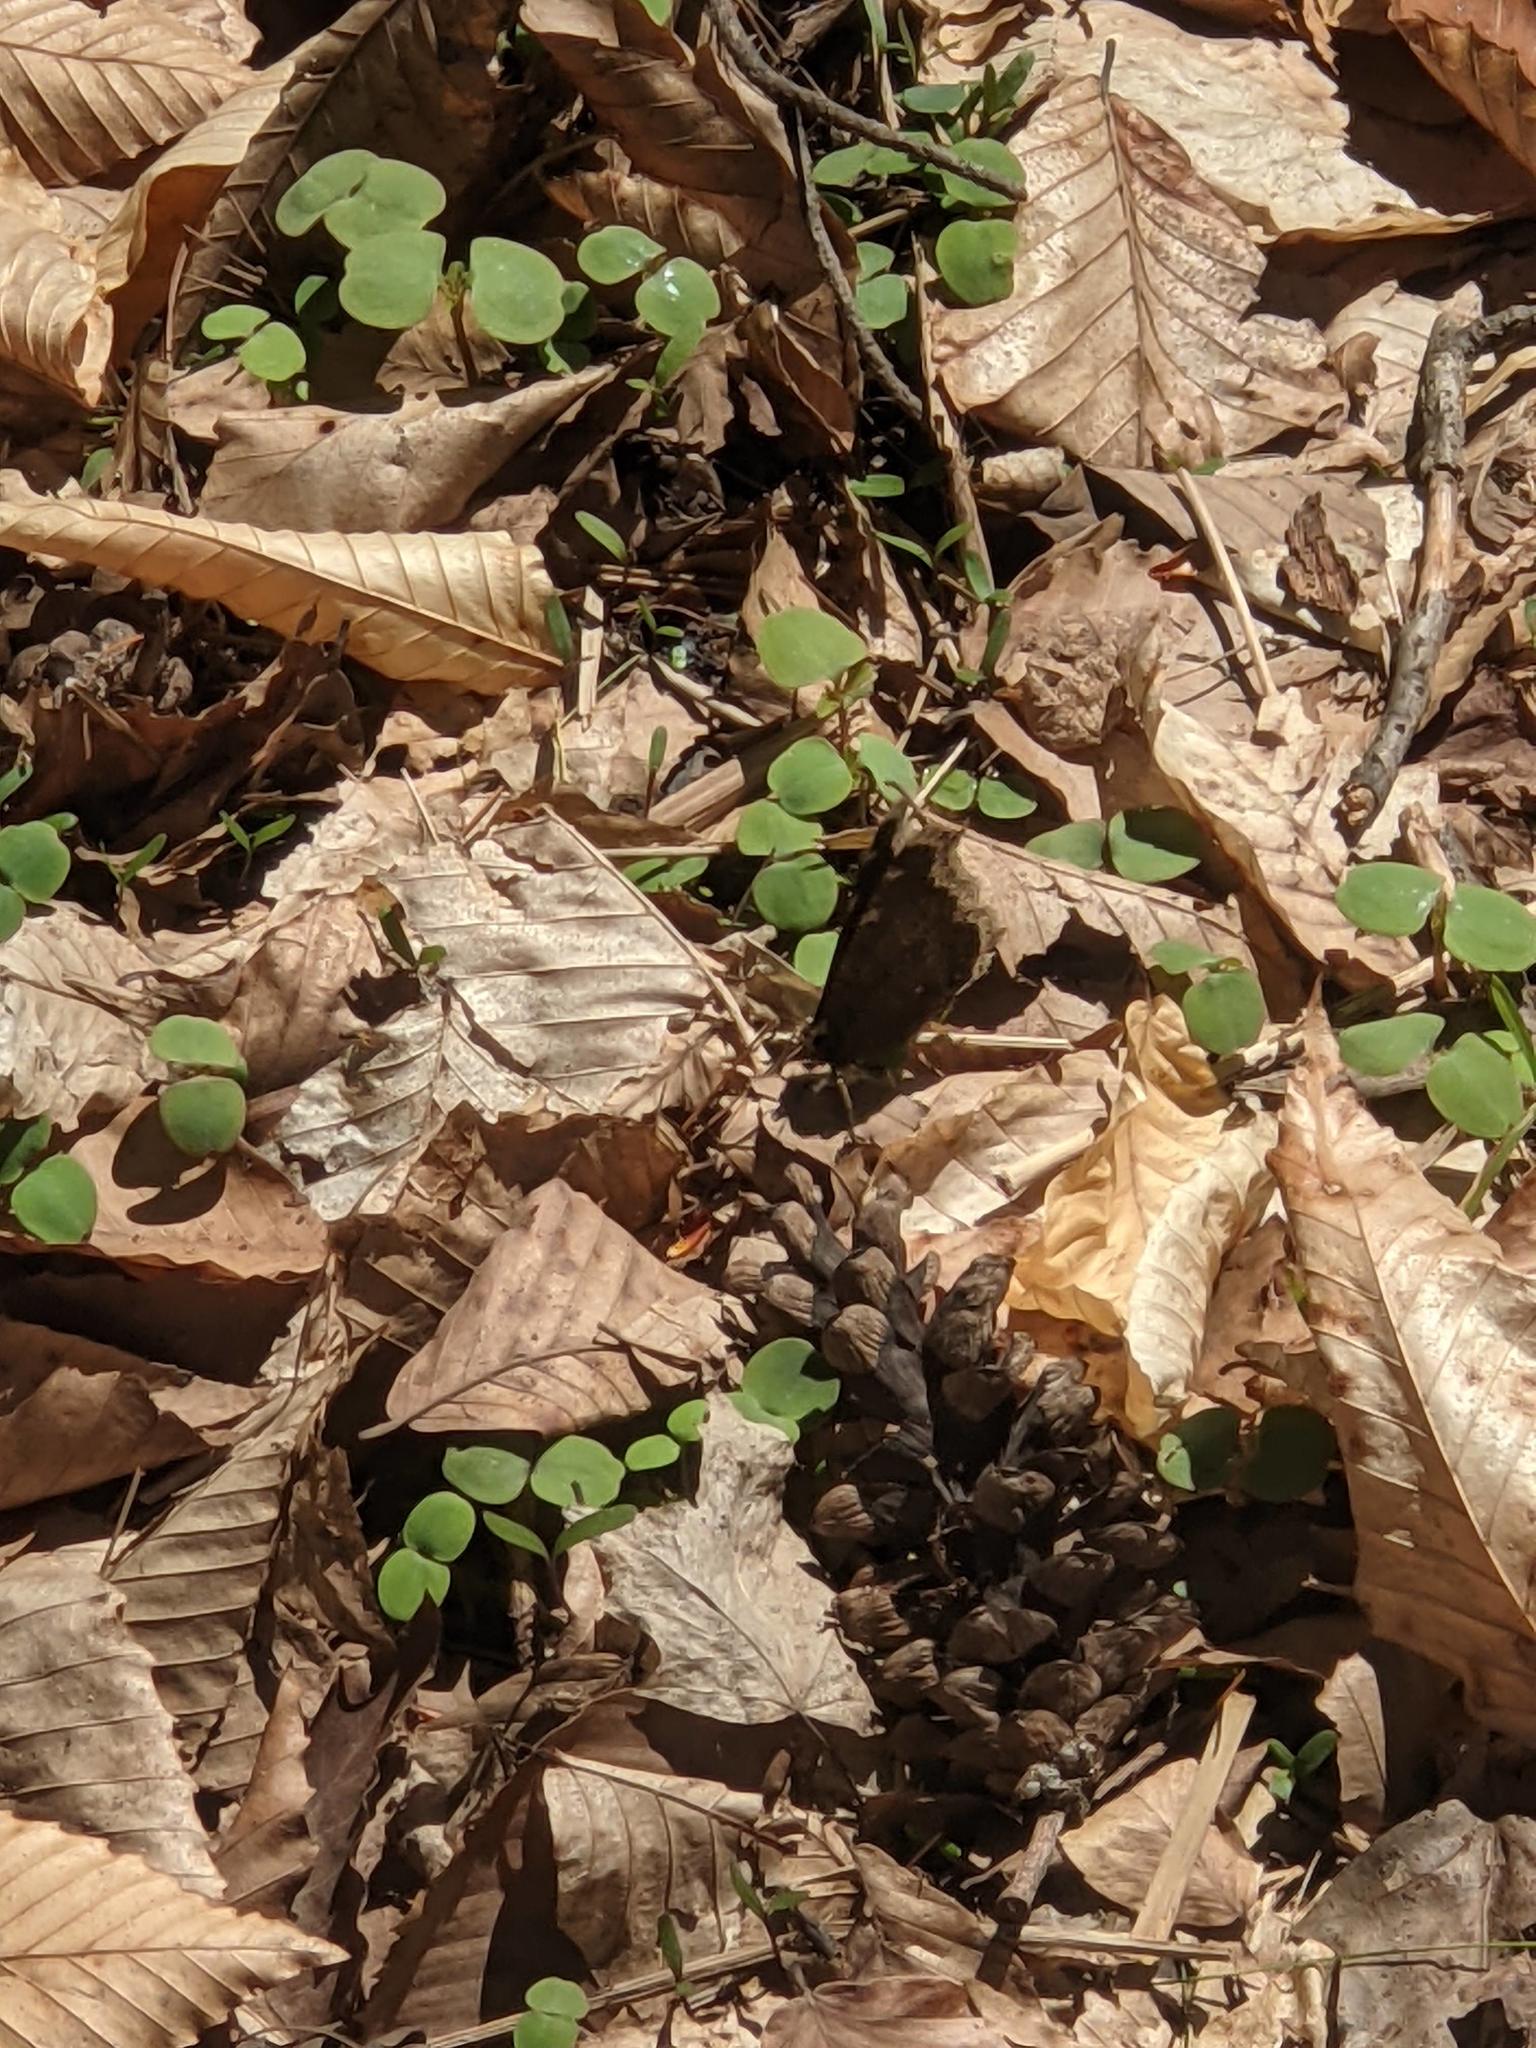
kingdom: Animalia
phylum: Arthropoda
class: Insecta
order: Lepidoptera
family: Nymphalidae
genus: Nymphalis
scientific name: Nymphalis antiopa
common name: Camberwell beauty
